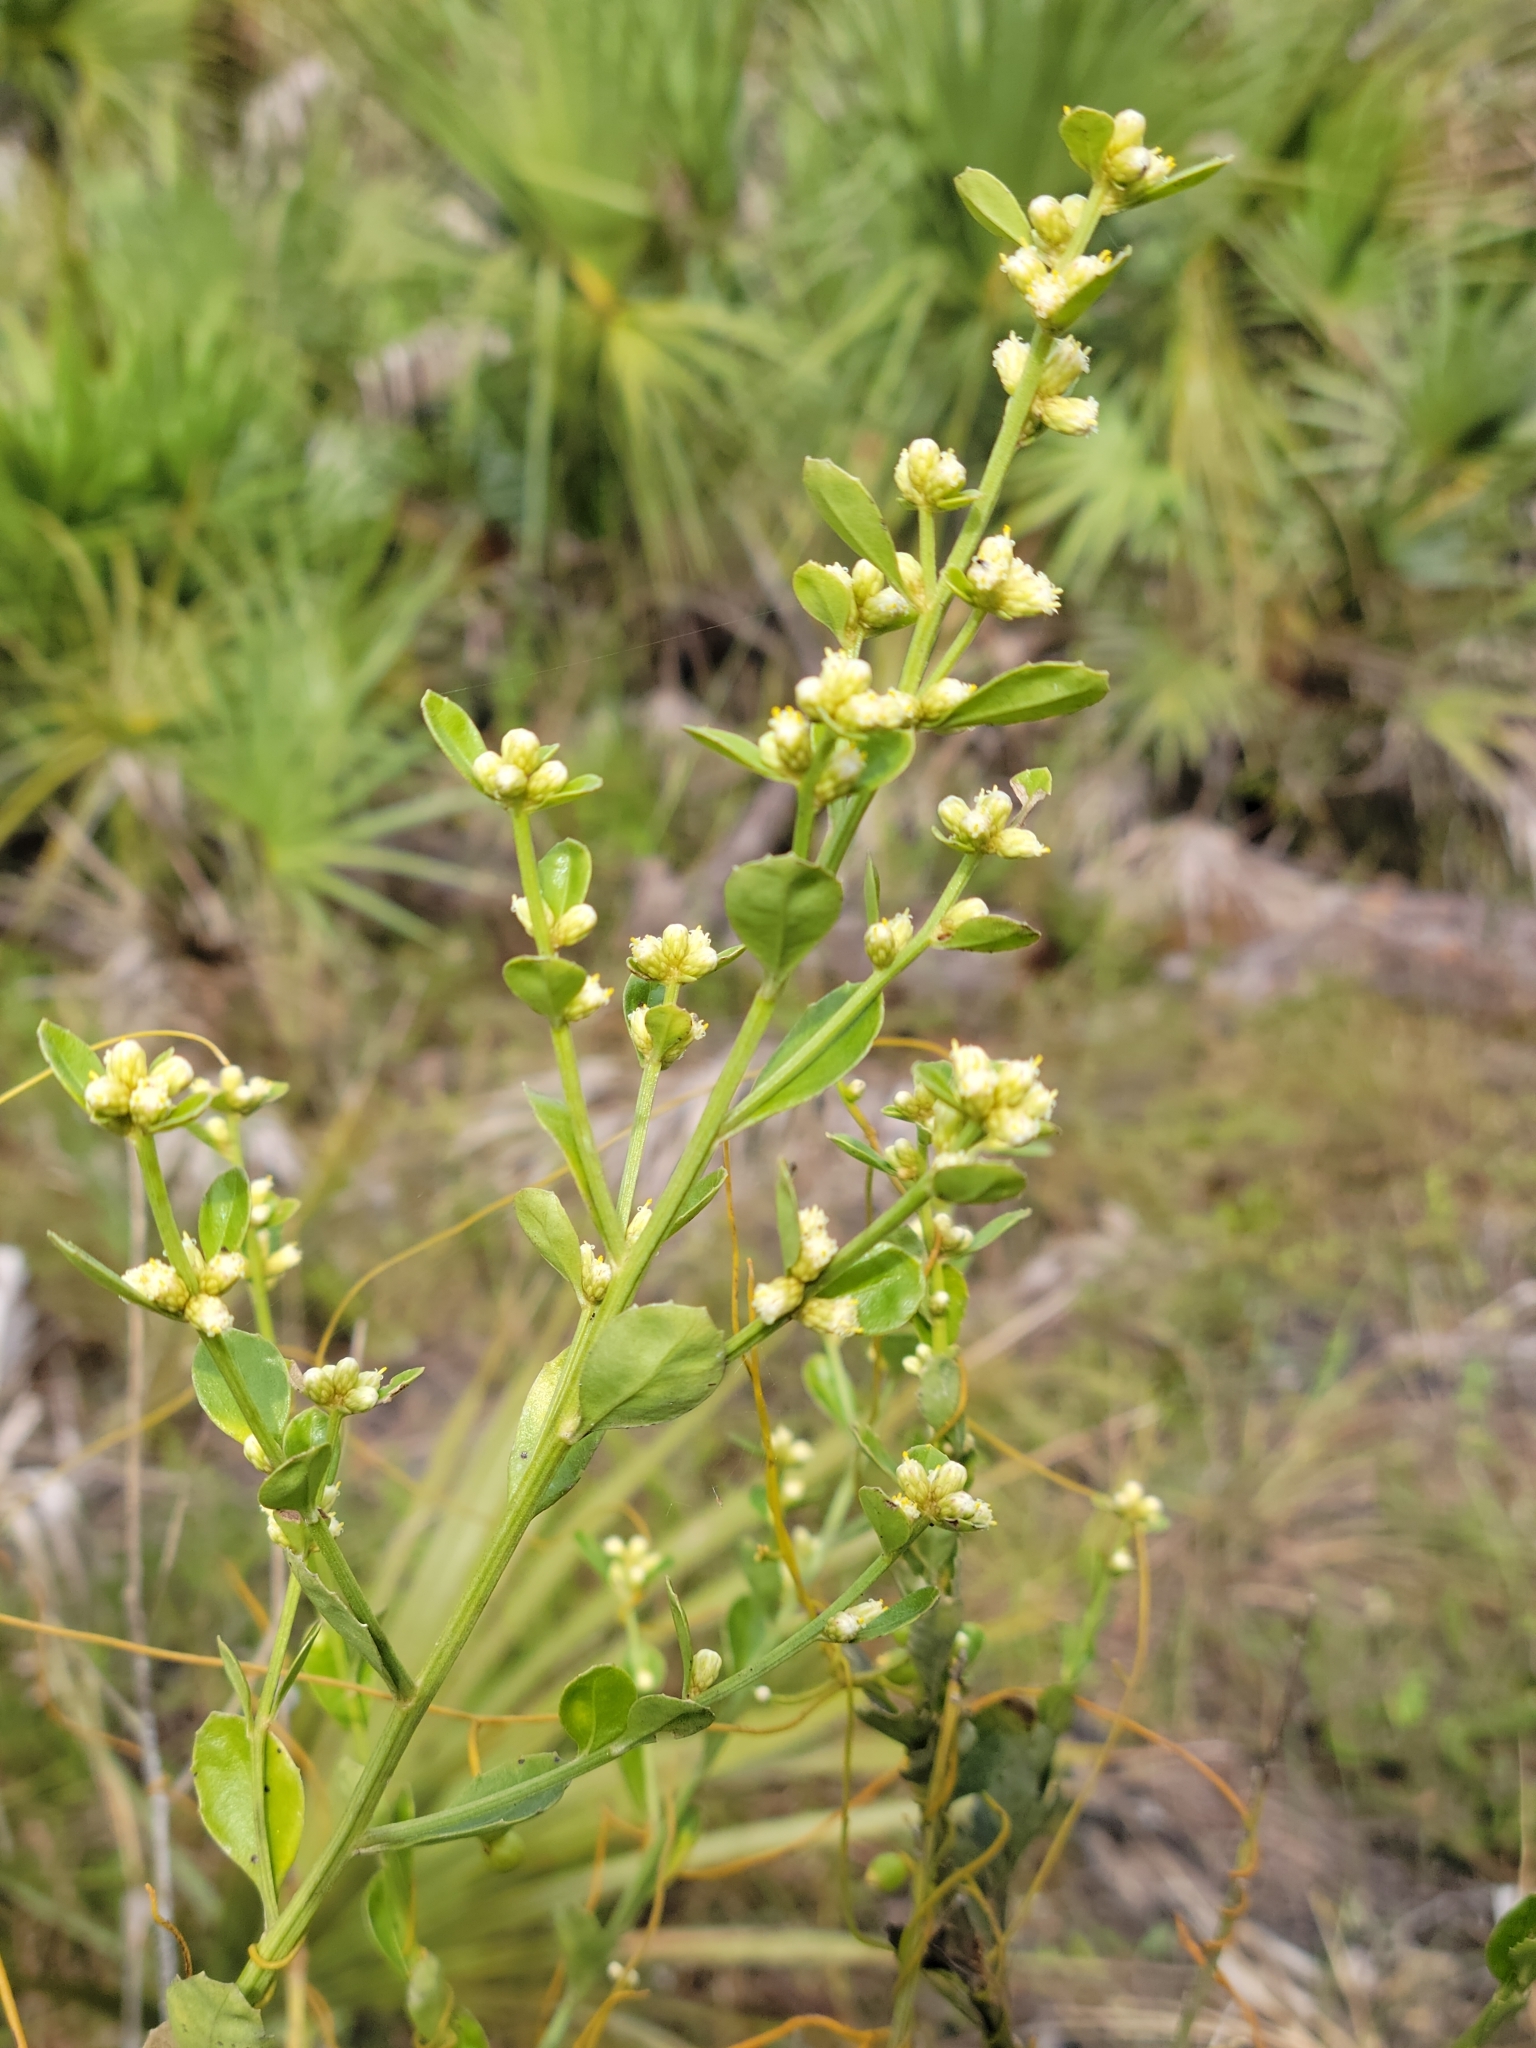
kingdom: Plantae
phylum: Tracheophyta
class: Magnoliopsida
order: Asterales
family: Asteraceae
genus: Baccharis
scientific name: Baccharis glomeruliflora
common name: Silverling groundsel bush
